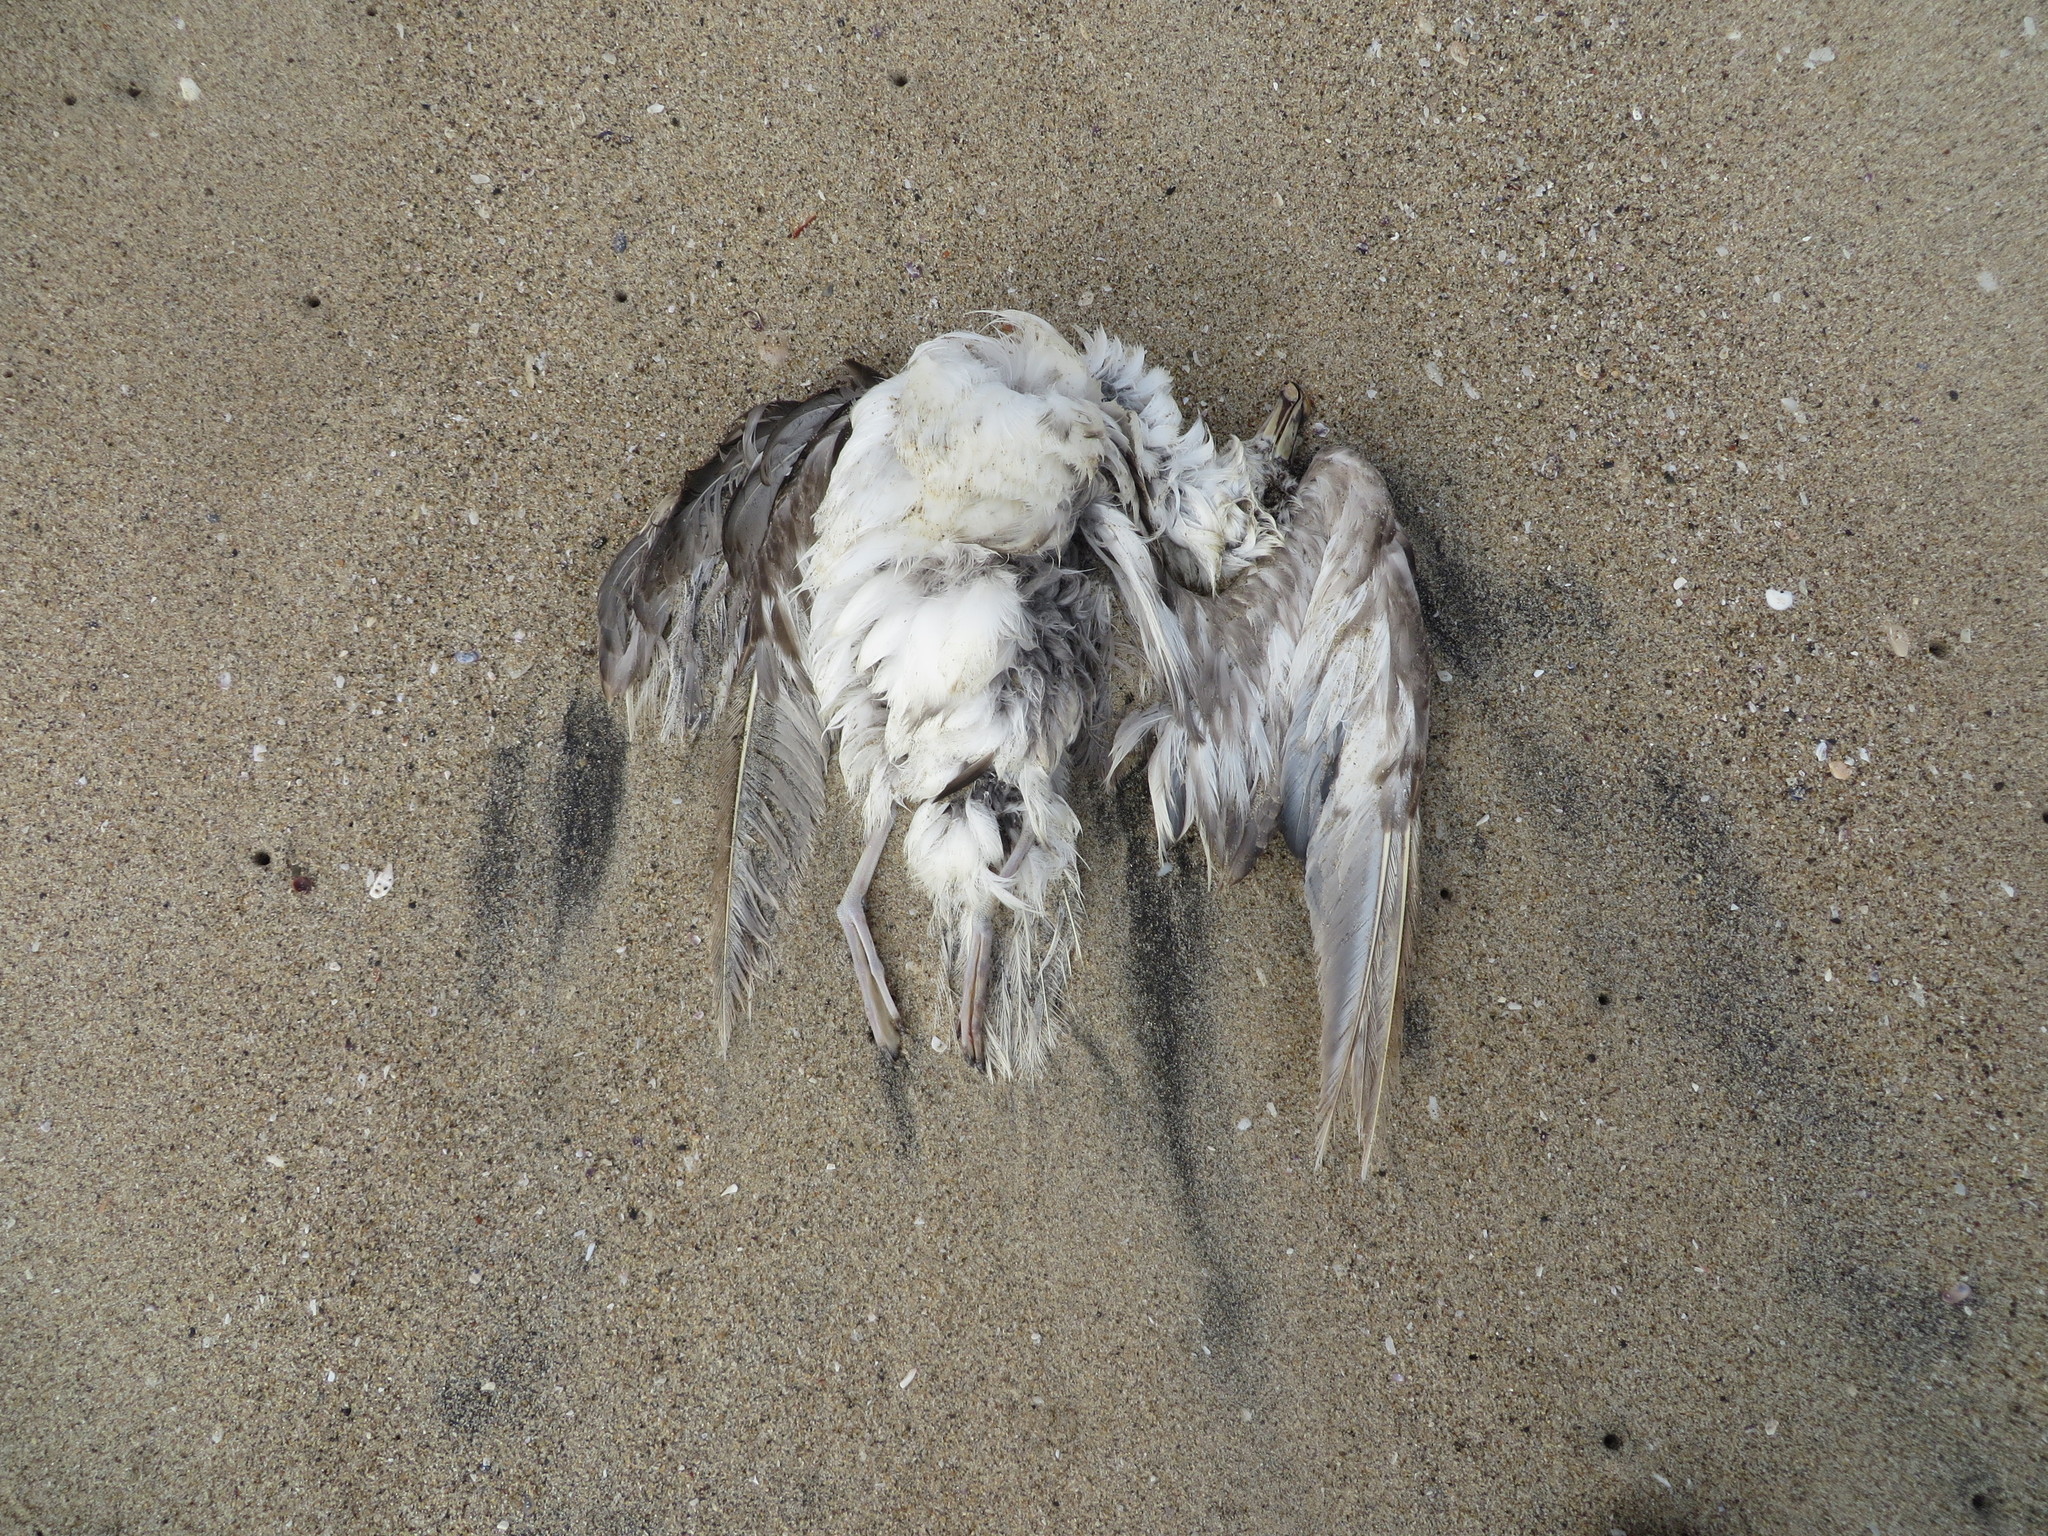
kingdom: Animalia
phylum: Chordata
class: Aves
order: Procellariiformes
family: Procellariidae
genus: Fulmarus
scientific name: Fulmarus glacialis
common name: Northern fulmar
